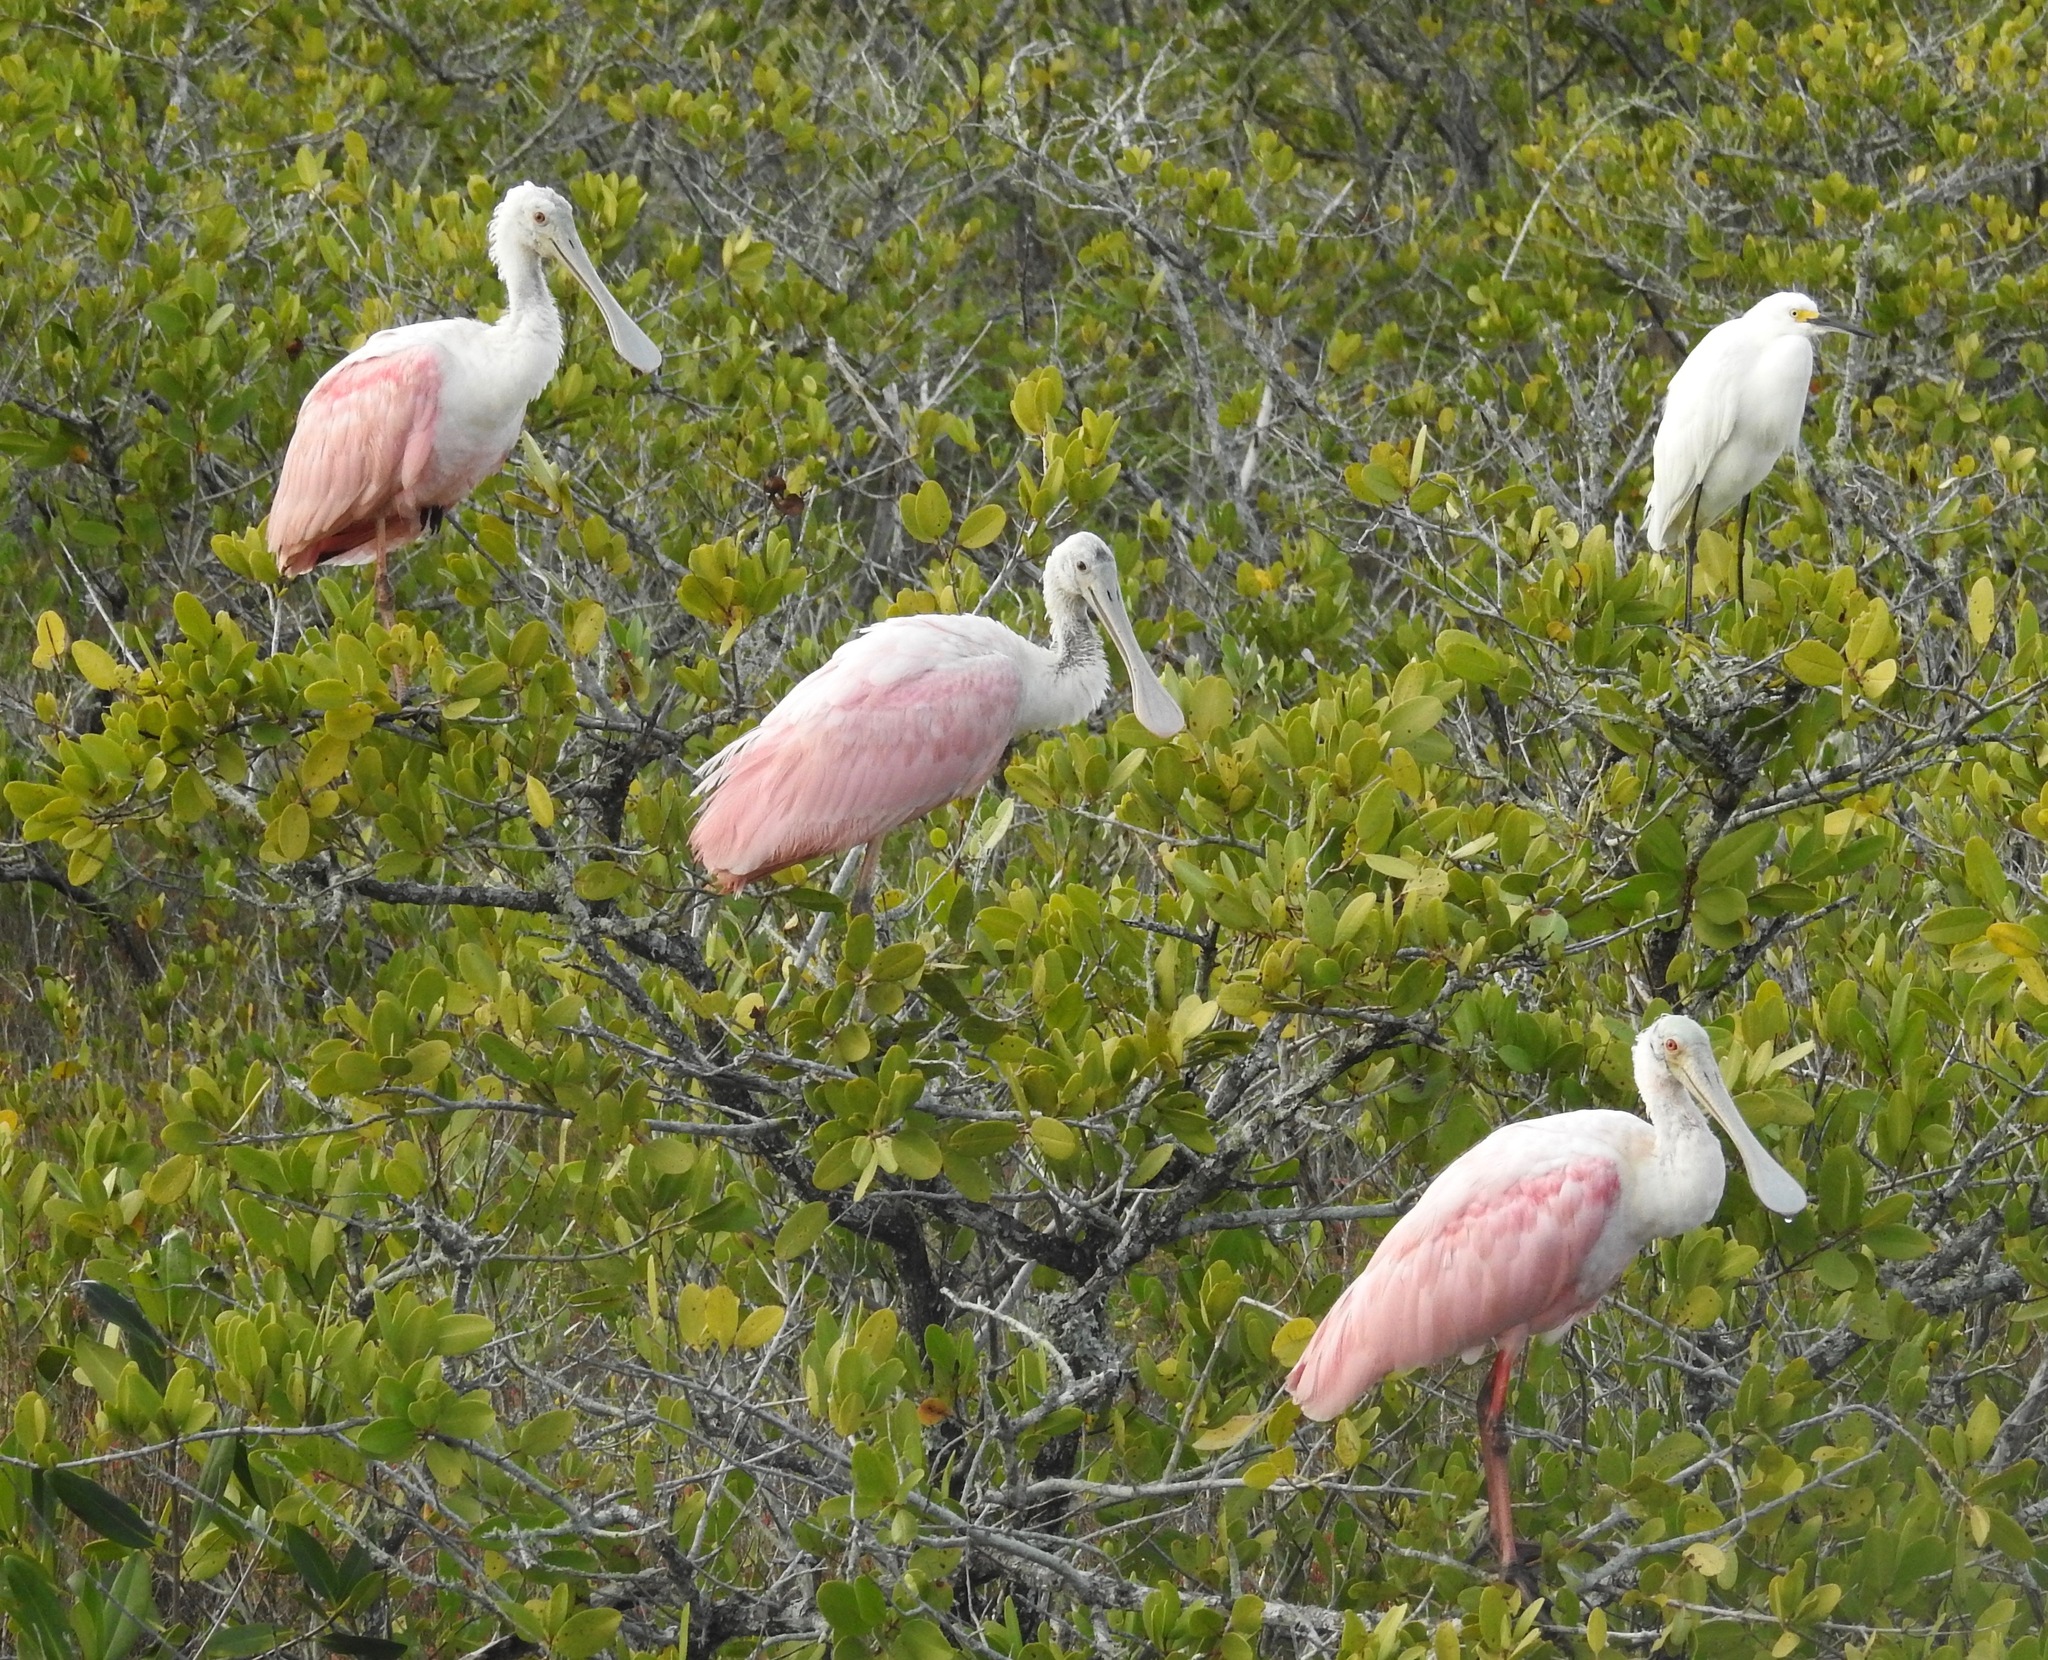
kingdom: Animalia
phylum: Chordata
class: Aves
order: Pelecaniformes
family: Threskiornithidae
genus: Platalea
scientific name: Platalea ajaja
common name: Roseate spoonbill
